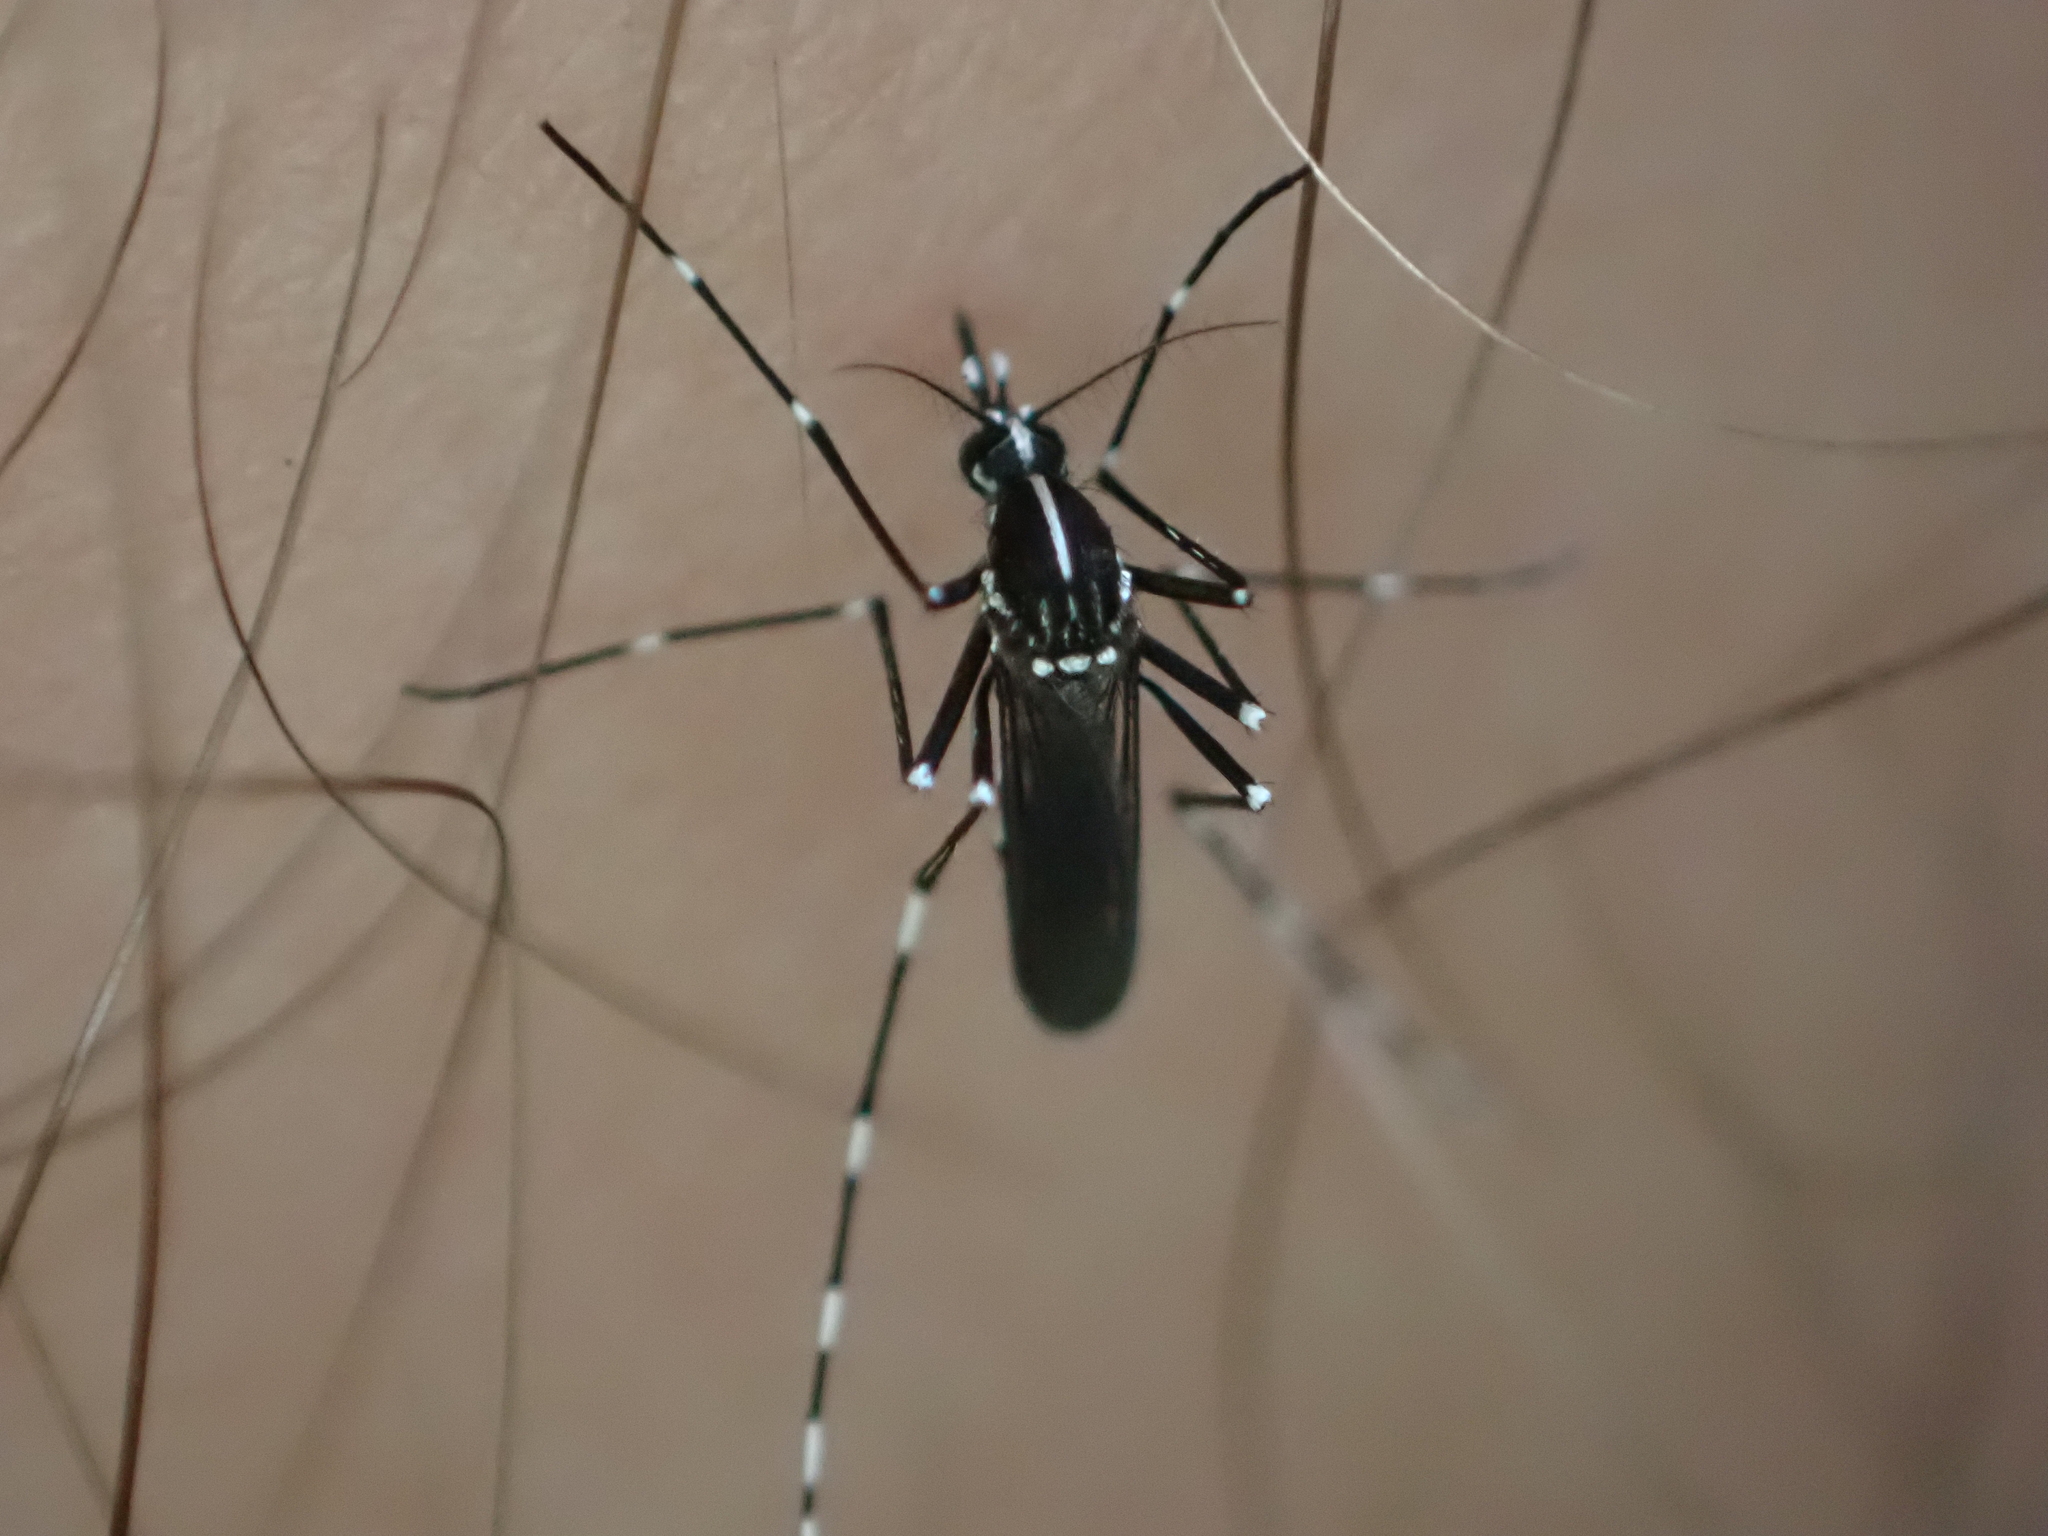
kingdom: Animalia
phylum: Arthropoda
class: Insecta
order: Diptera
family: Culicidae
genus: Aedes
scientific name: Aedes albopictus
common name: Tiger mosquito
